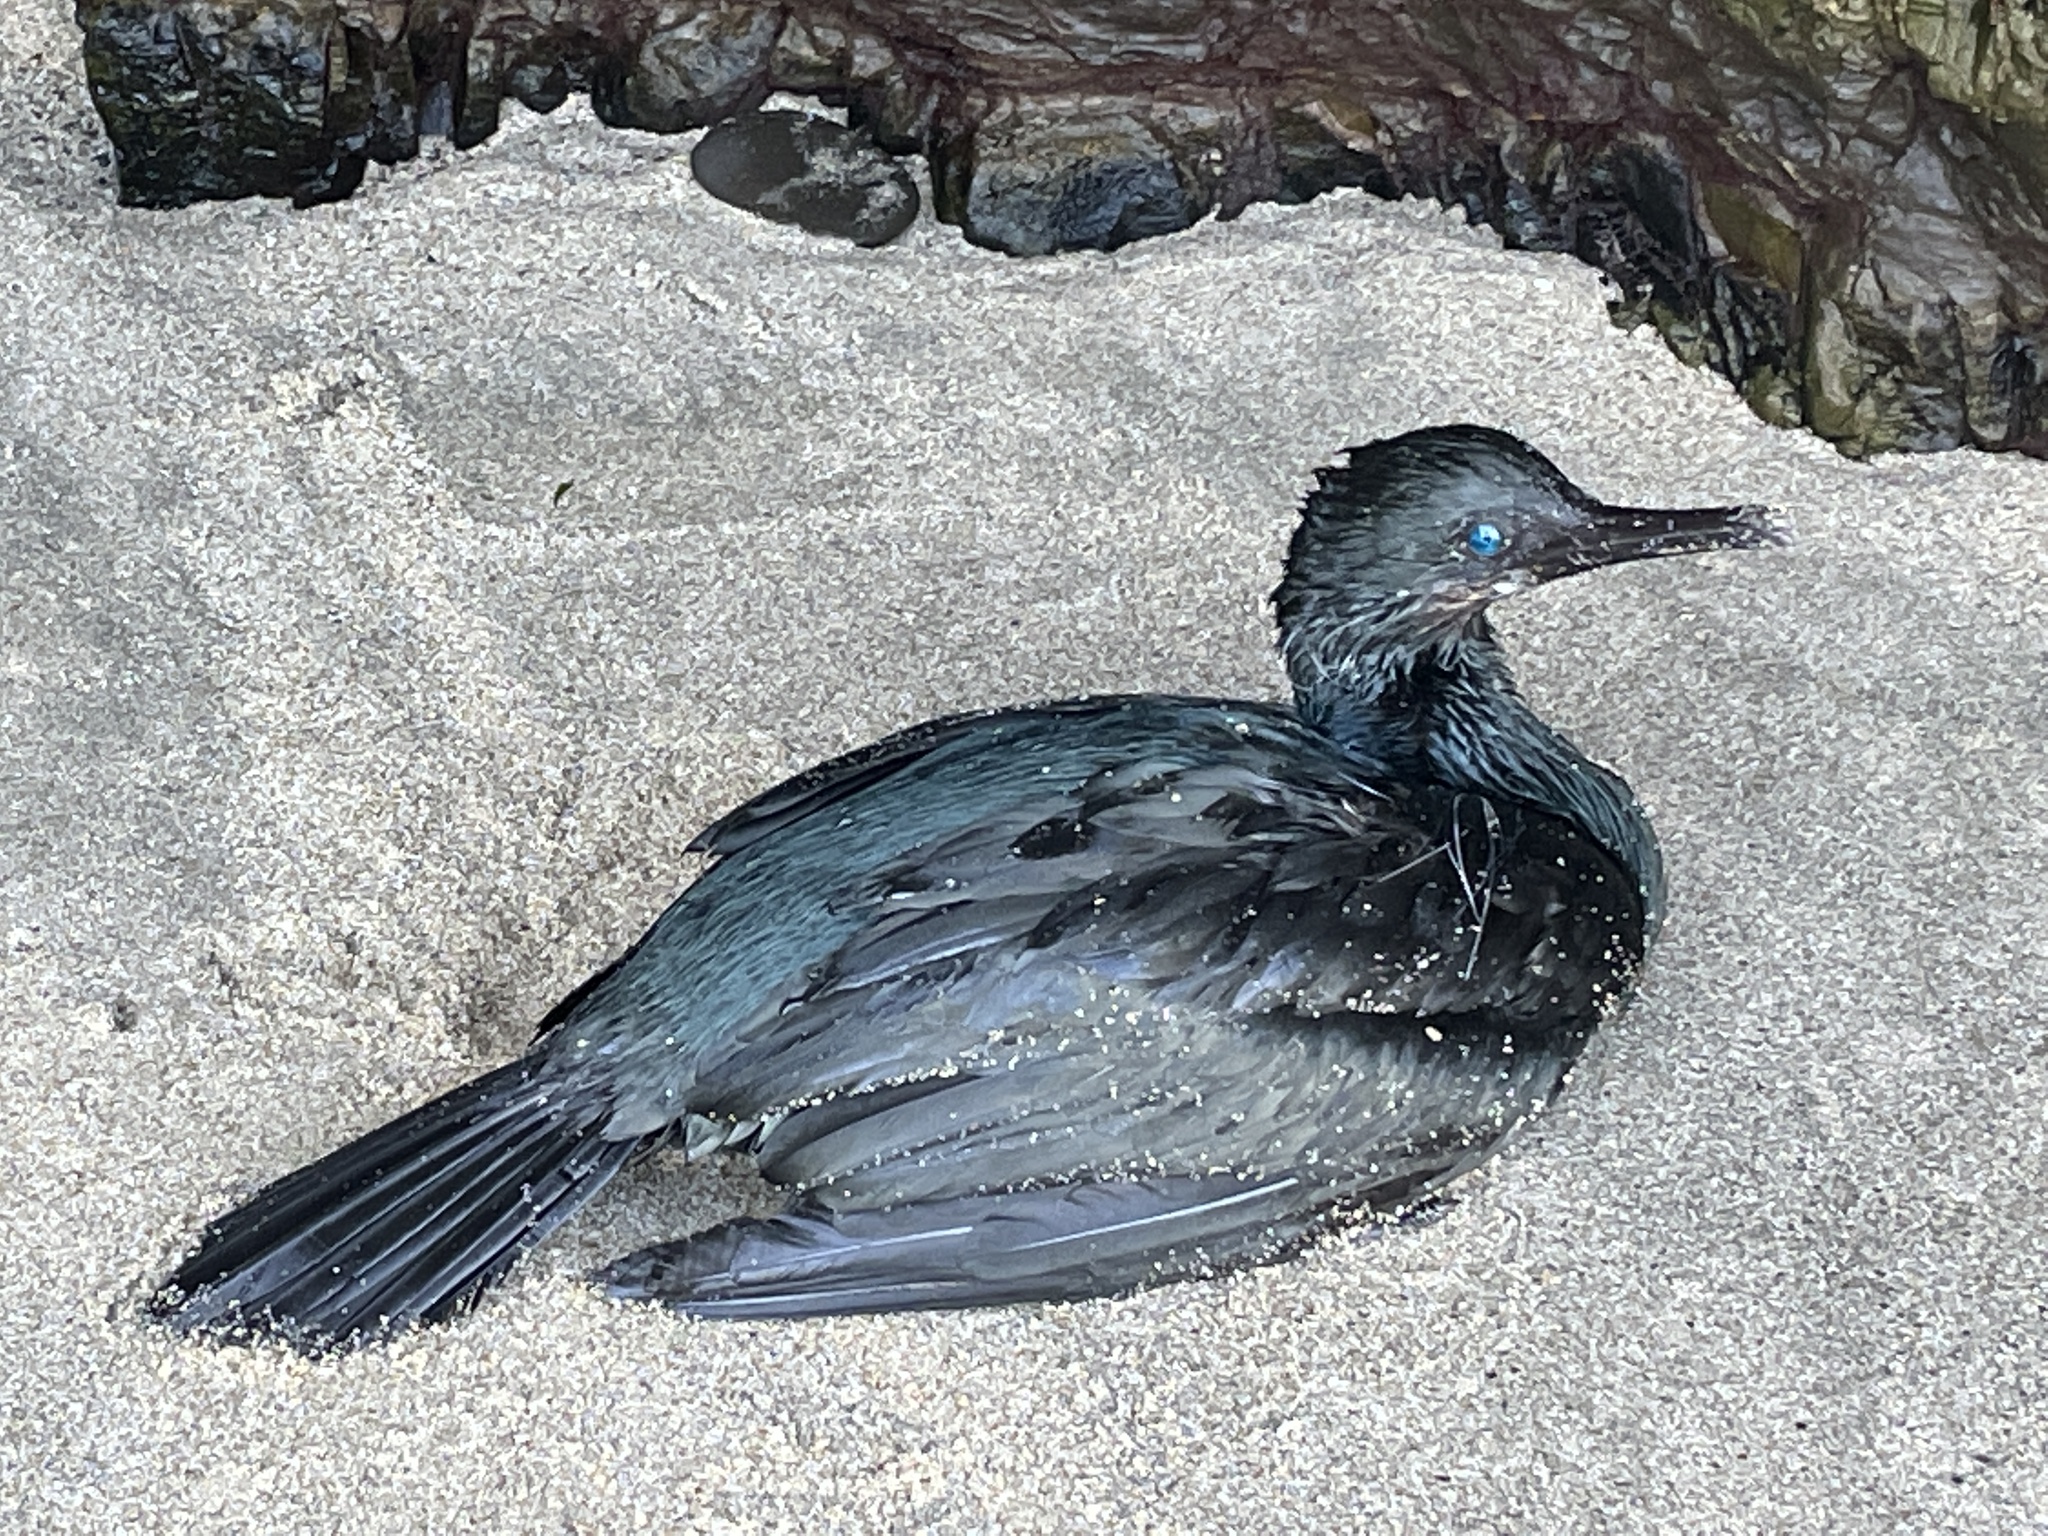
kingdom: Animalia
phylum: Chordata
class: Aves
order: Suliformes
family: Phalacrocoracidae
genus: Urile
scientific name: Urile penicillatus
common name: Brandt's cormorant
